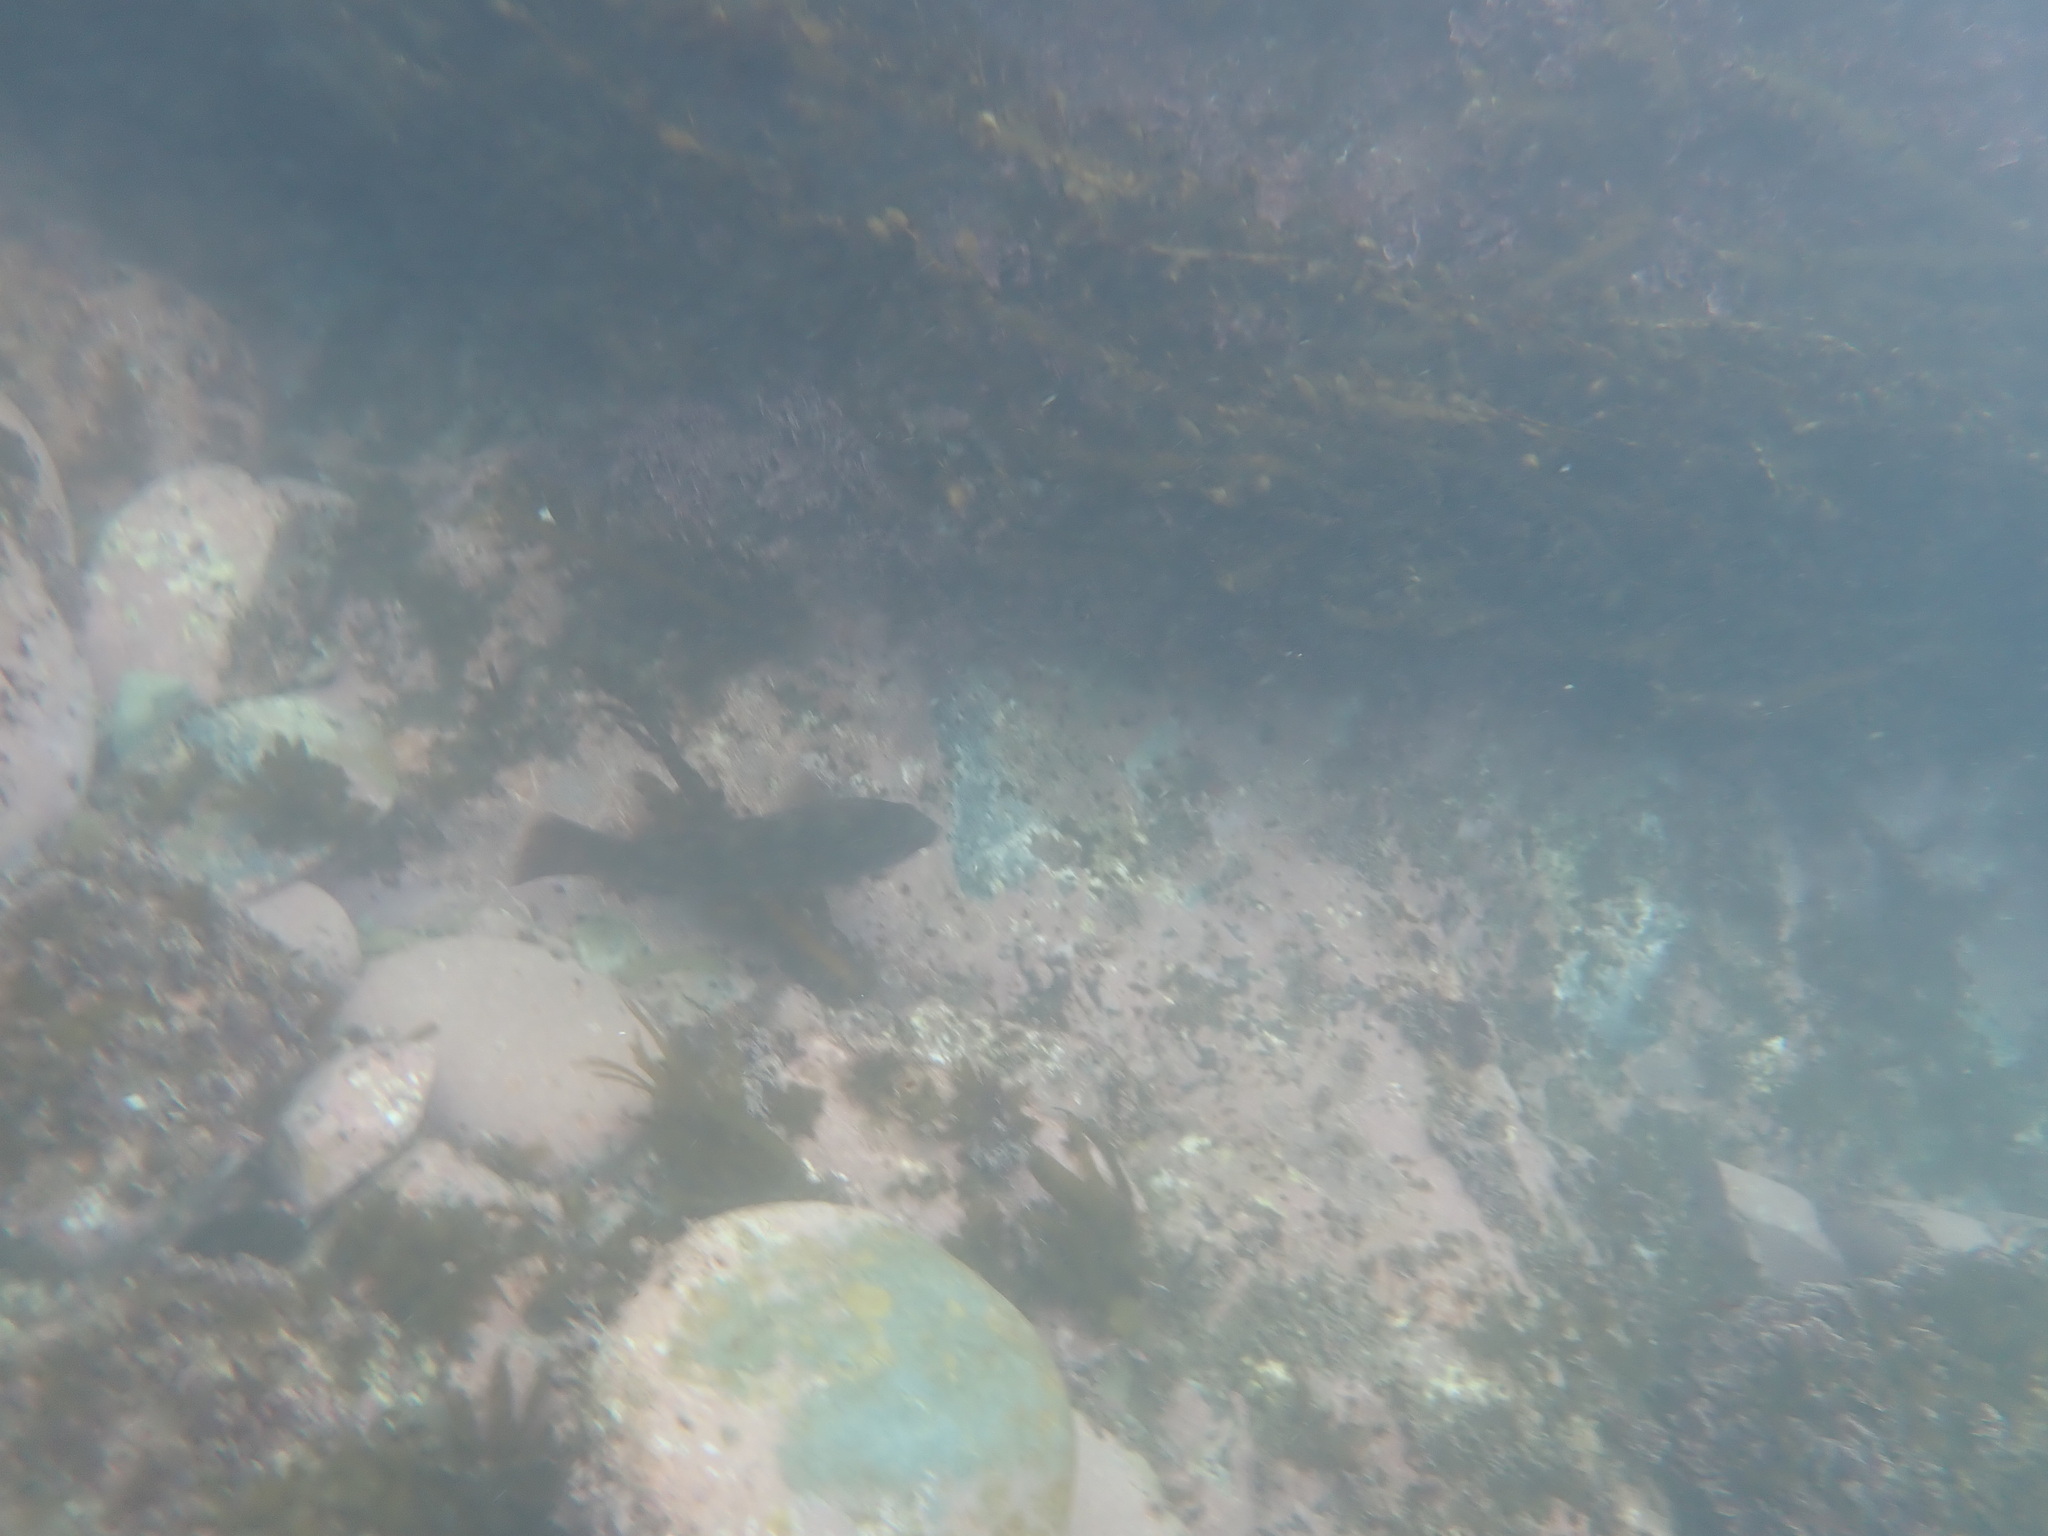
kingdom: Animalia
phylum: Chordata
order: Perciformes
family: Labridae
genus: Notolabrus
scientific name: Notolabrus fucicola
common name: Banded parrotfish
